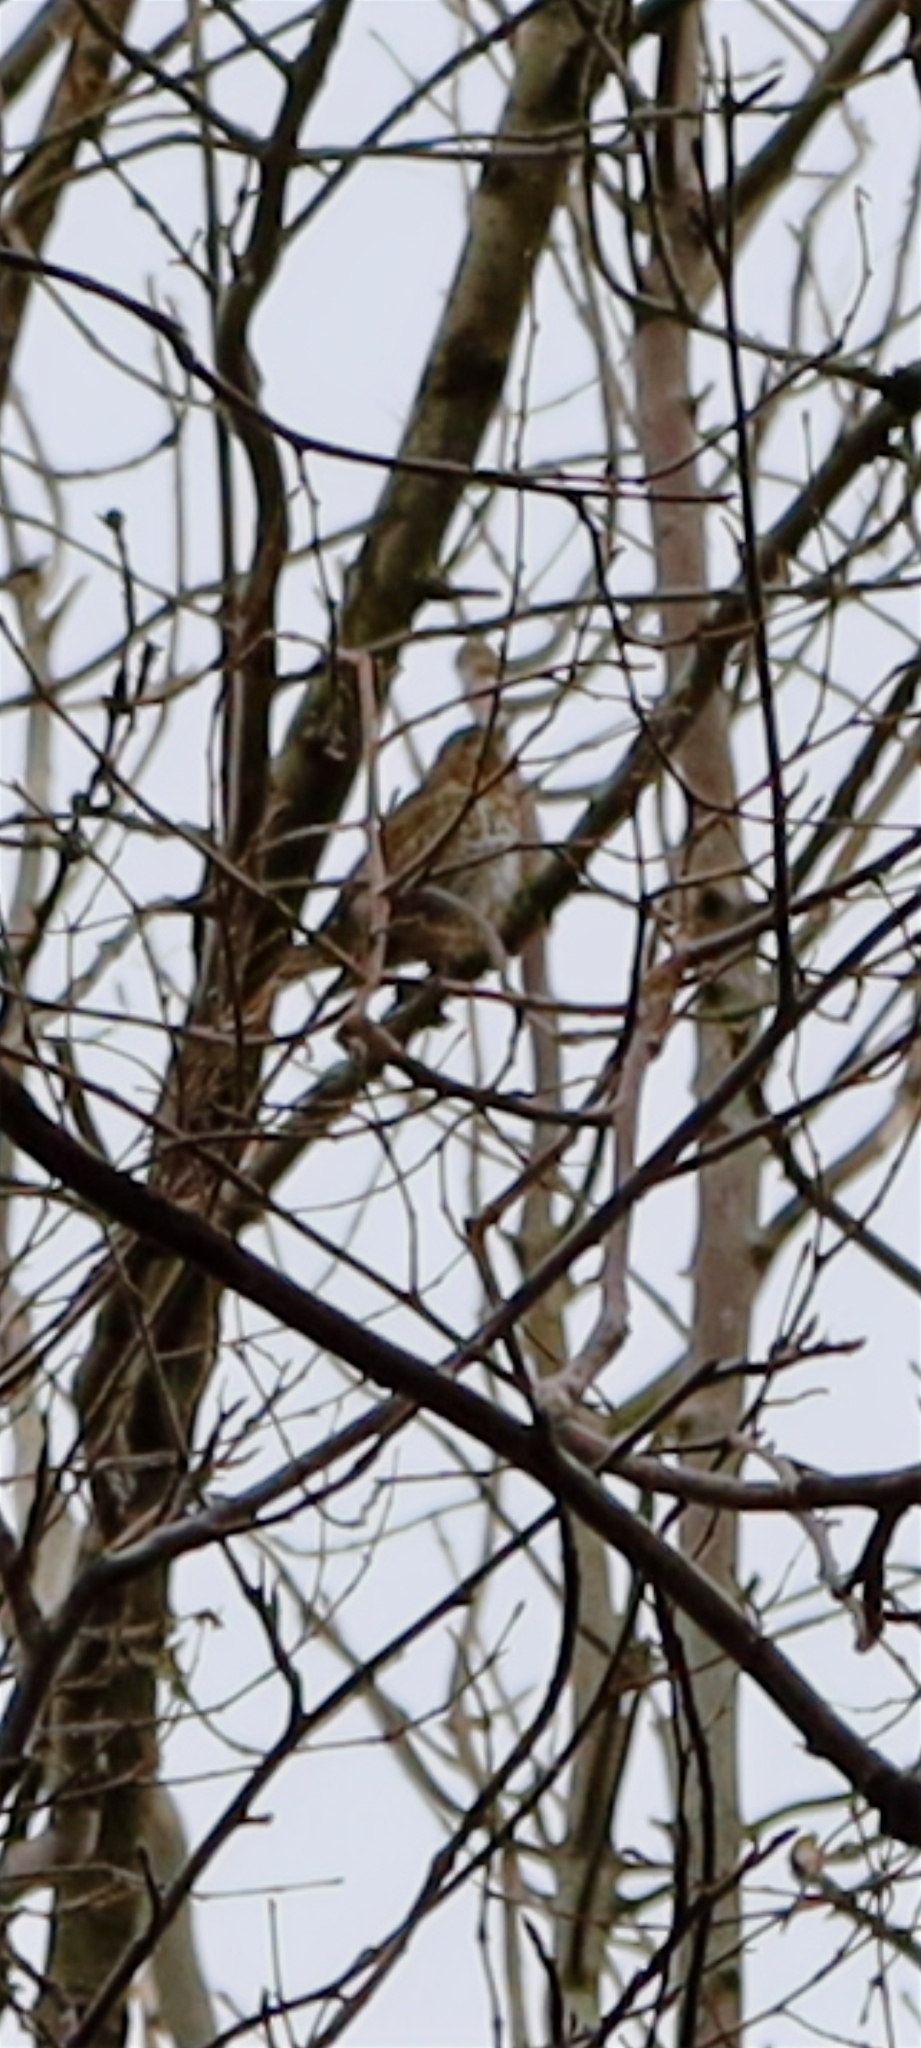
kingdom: Animalia
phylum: Chordata
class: Aves
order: Passeriformes
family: Turdidae
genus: Turdus
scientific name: Turdus philomelos
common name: Song thrush
